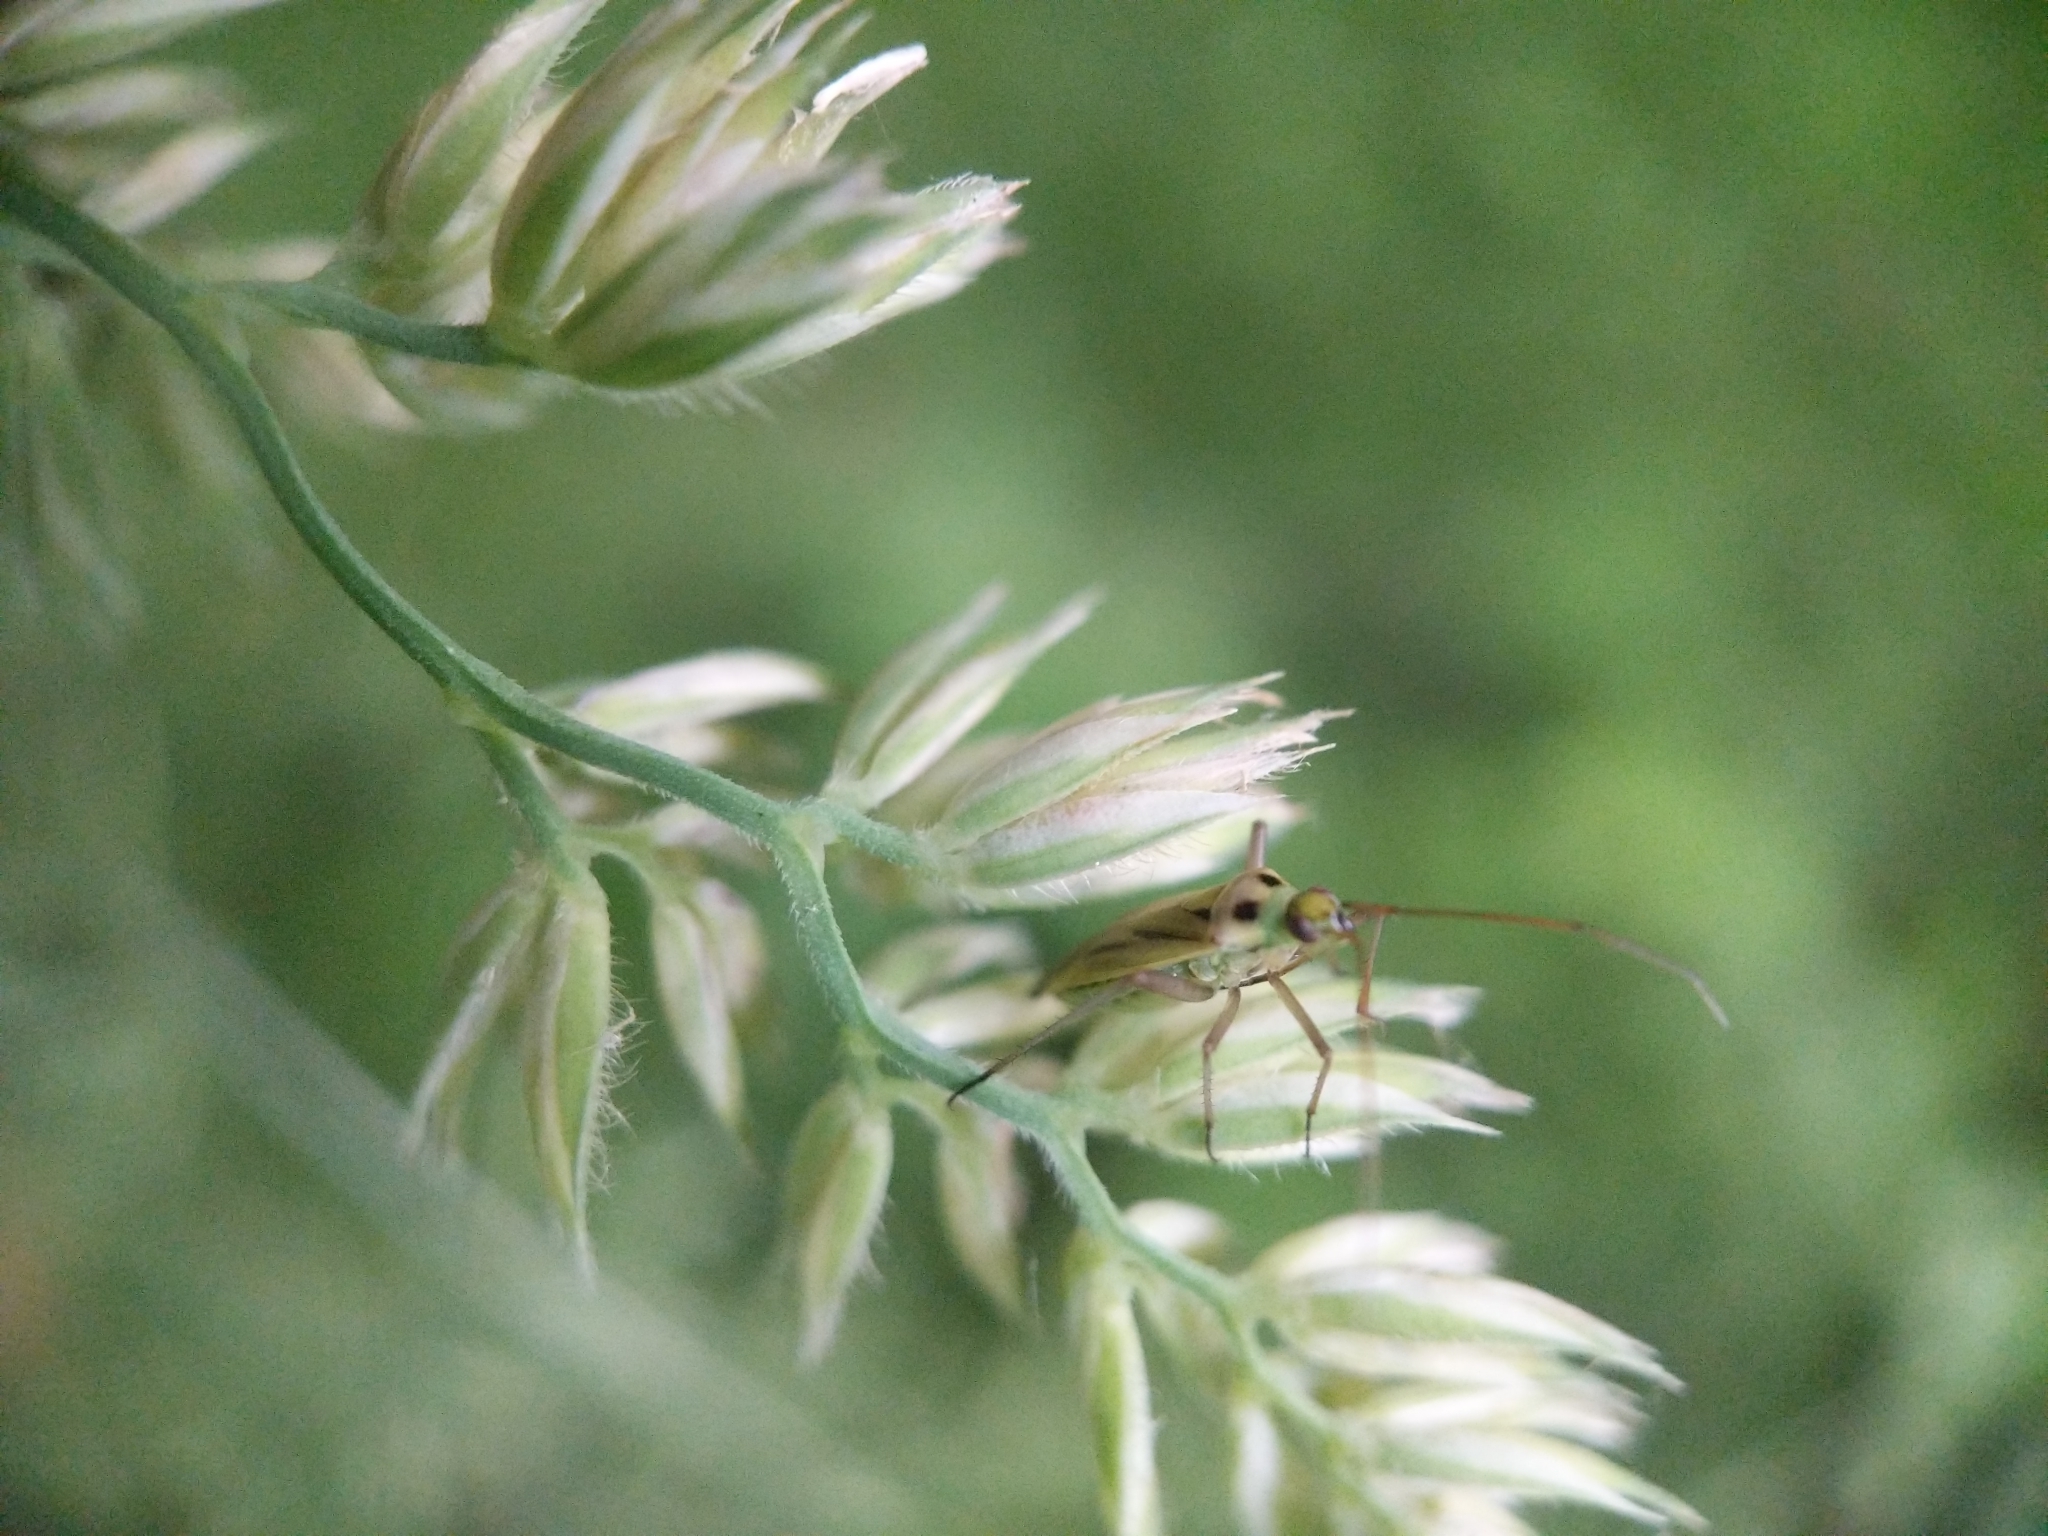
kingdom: Animalia
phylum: Arthropoda
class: Insecta
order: Hemiptera
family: Miridae
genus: Stenotus
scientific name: Stenotus binotatus
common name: Plant bug
